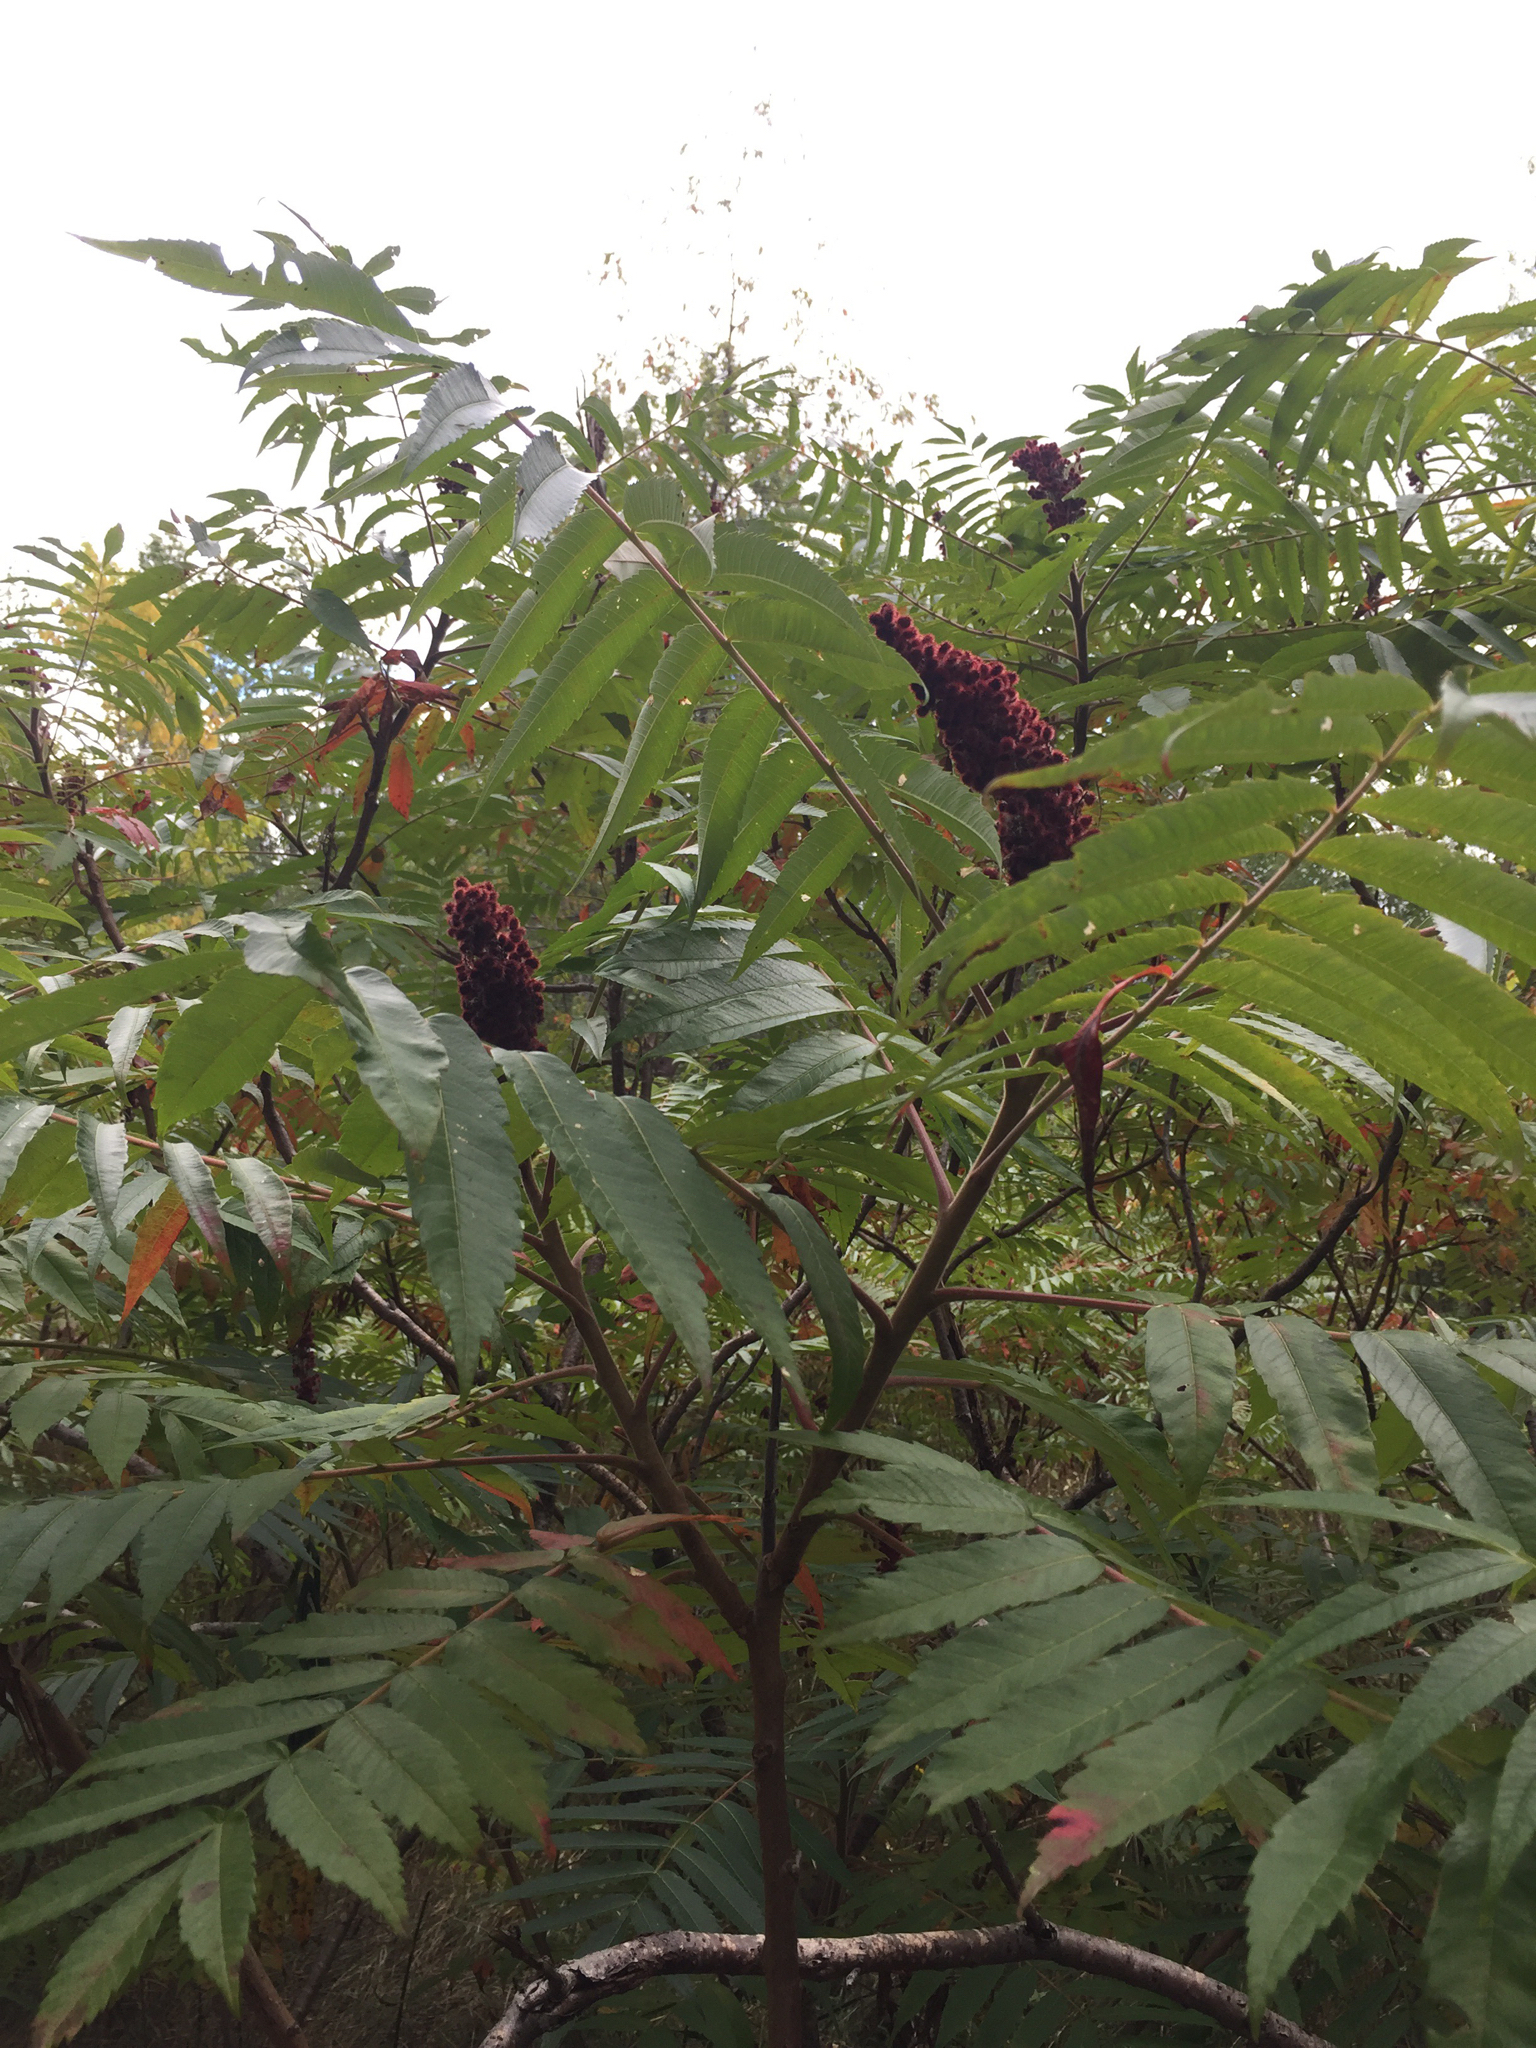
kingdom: Plantae
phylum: Tracheophyta
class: Magnoliopsida
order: Sapindales
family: Anacardiaceae
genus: Rhus
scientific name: Rhus typhina
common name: Staghorn sumac
